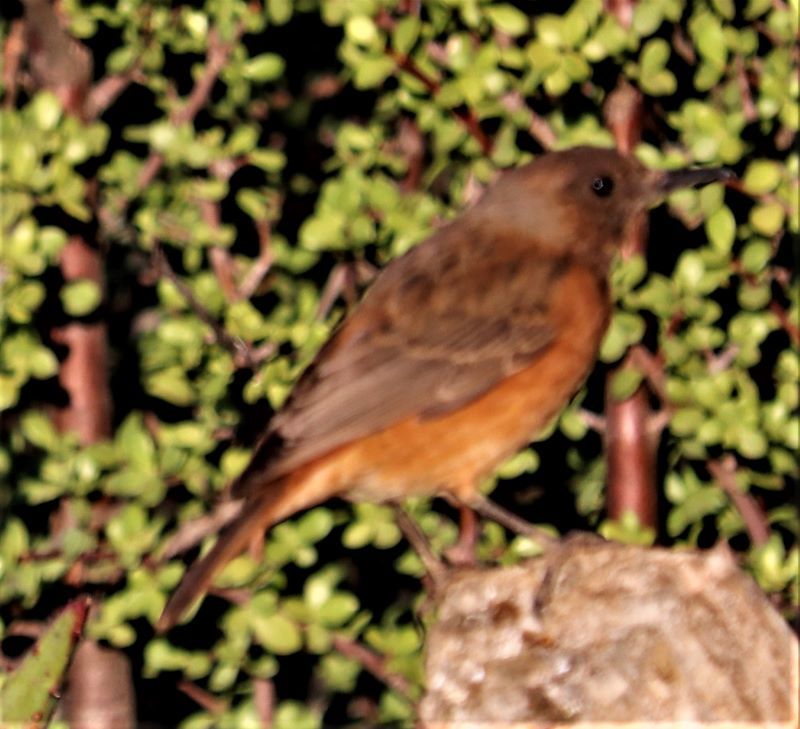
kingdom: Animalia
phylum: Chordata
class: Aves
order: Passeriformes
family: Muscicapidae
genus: Monticola
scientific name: Monticola rupestris
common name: Cape rock thrush
